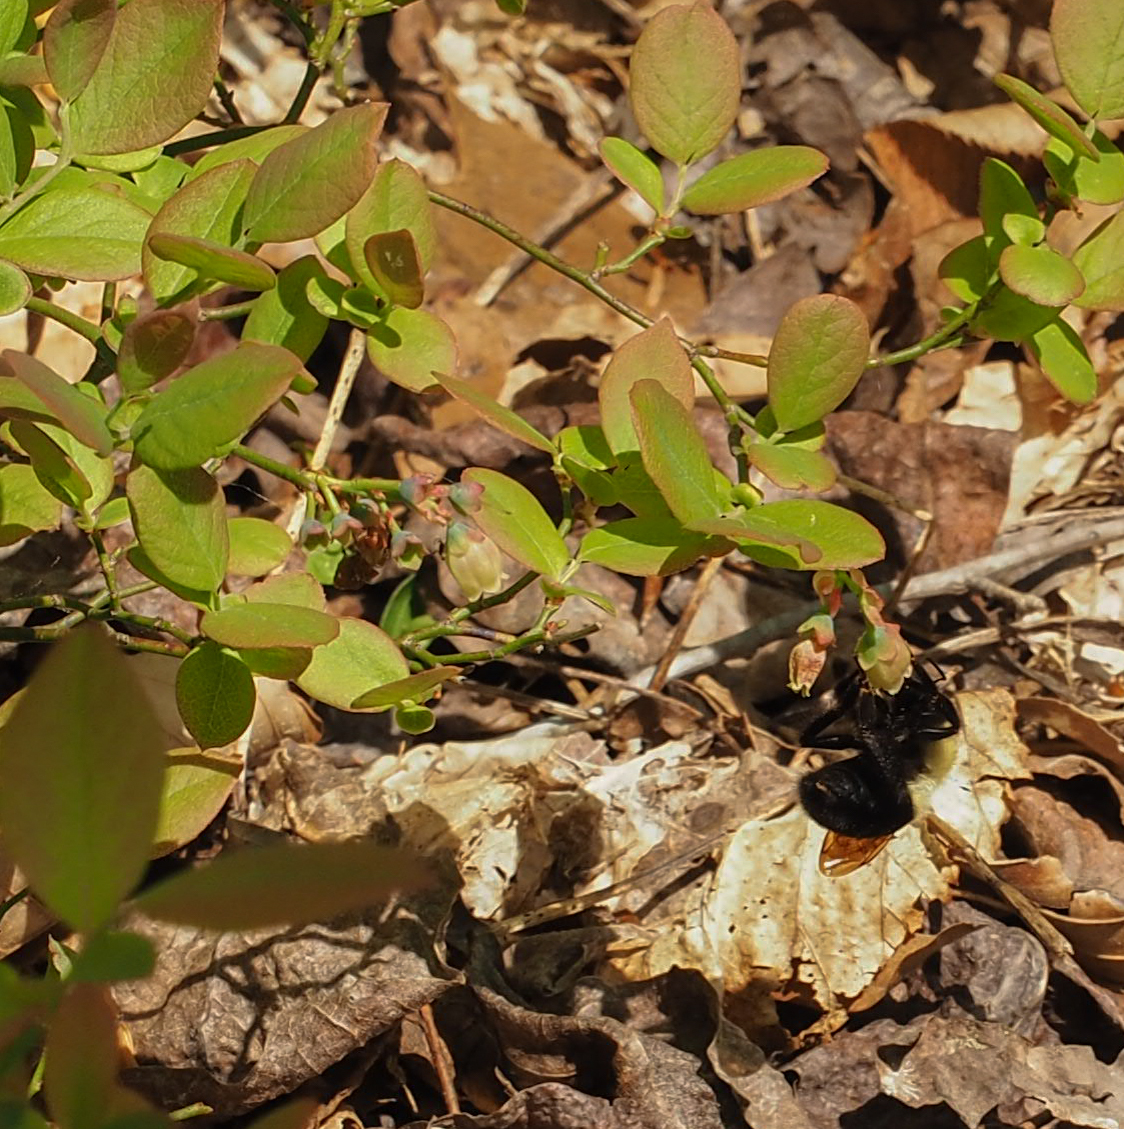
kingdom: Plantae
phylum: Tracheophyta
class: Magnoliopsida
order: Ericales
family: Ericaceae
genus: Vaccinium
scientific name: Vaccinium pallidum
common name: Blue ridge blueberry
